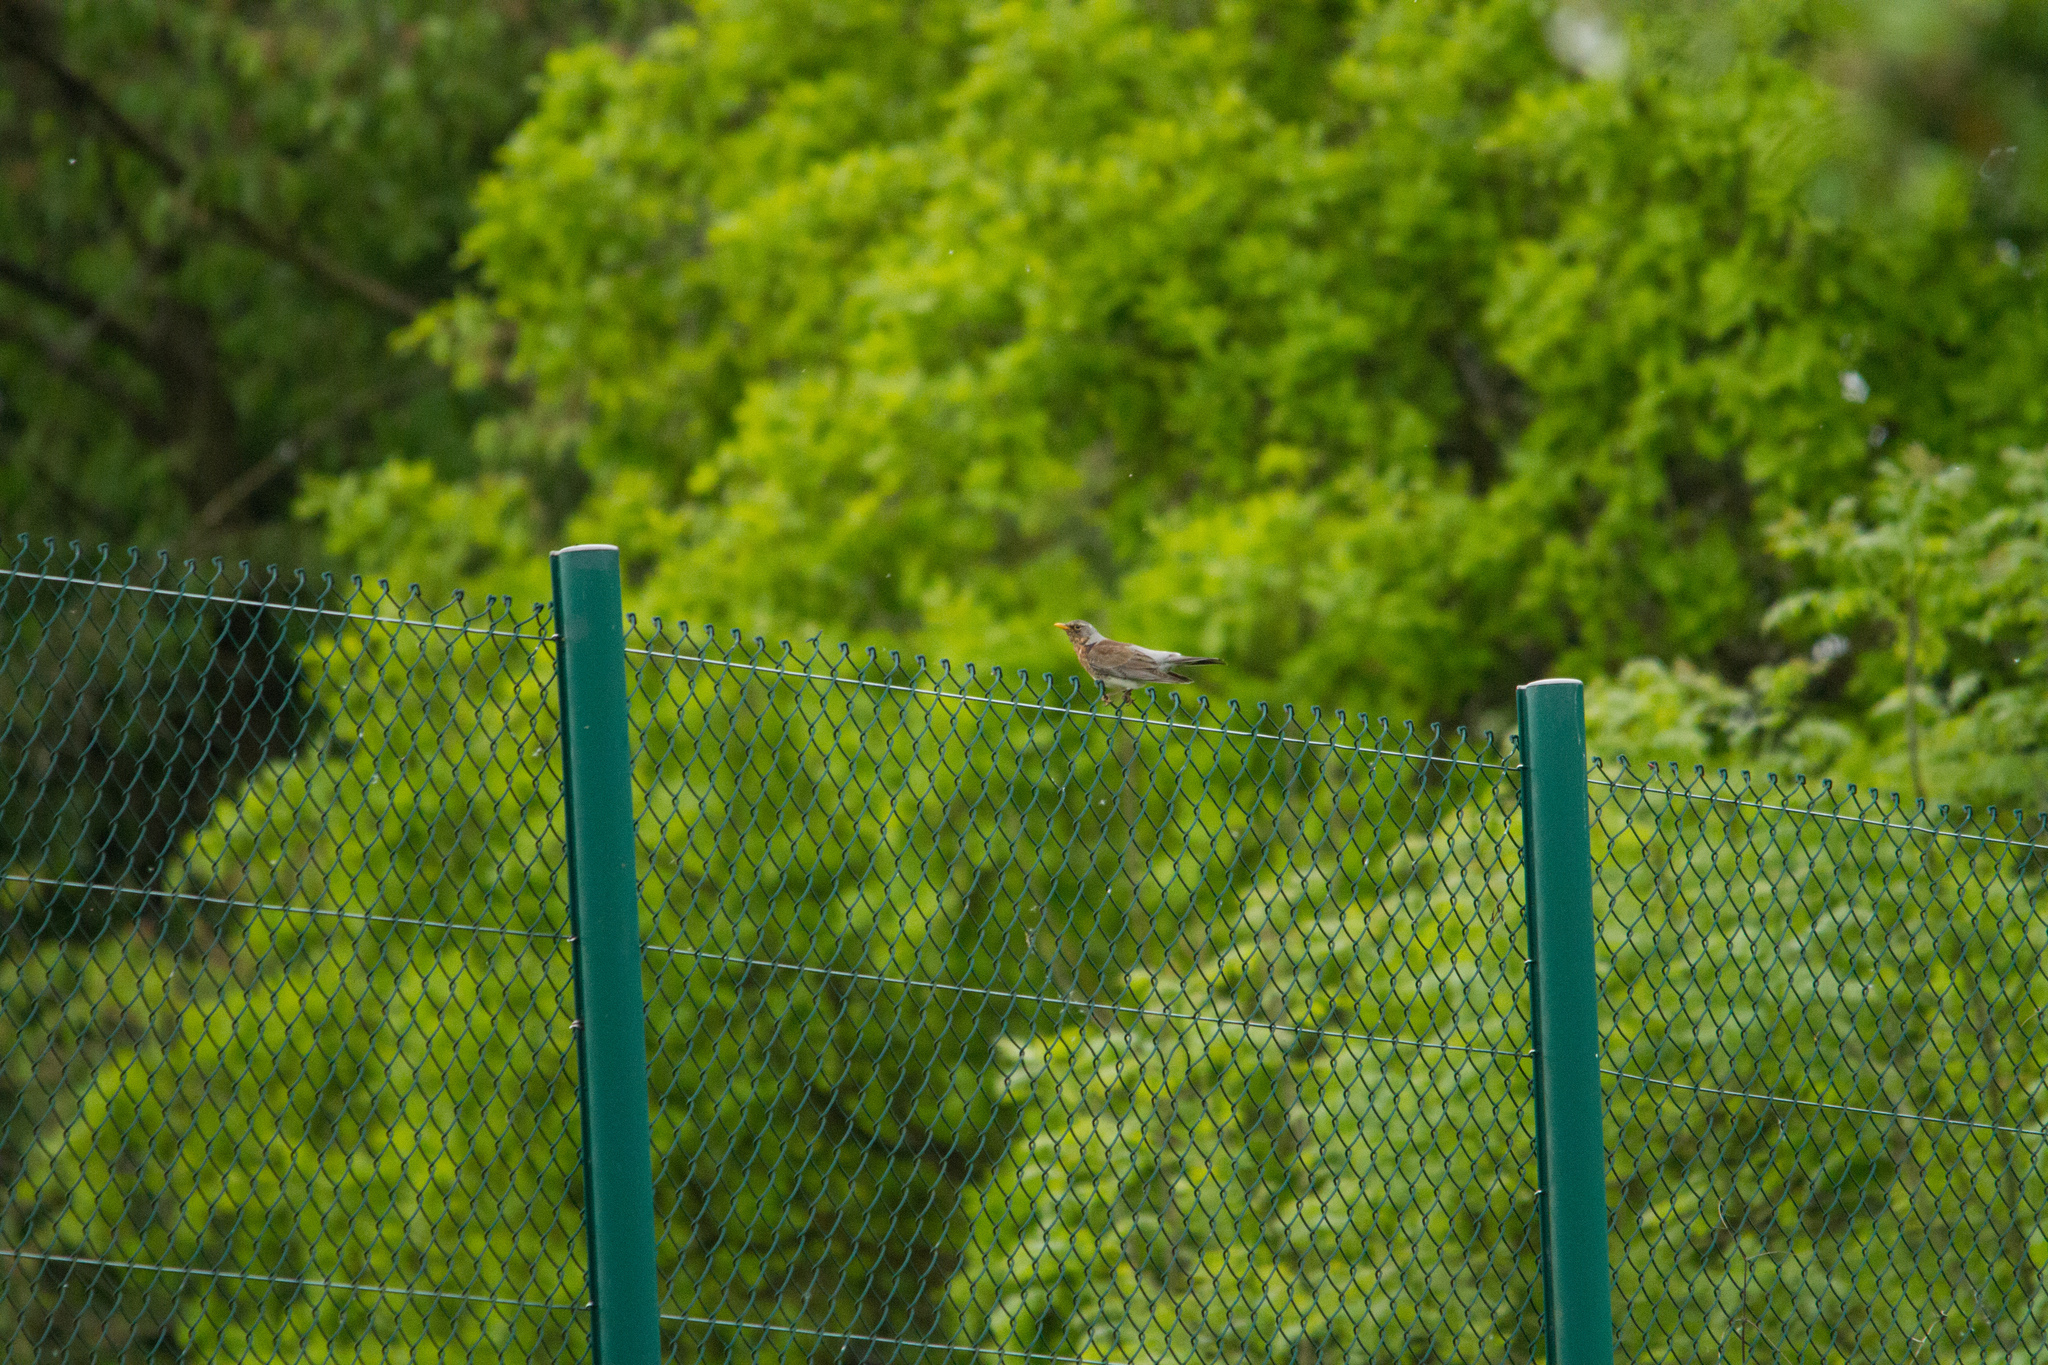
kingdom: Animalia
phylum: Chordata
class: Aves
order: Passeriformes
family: Turdidae
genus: Turdus
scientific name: Turdus pilaris
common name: Fieldfare
